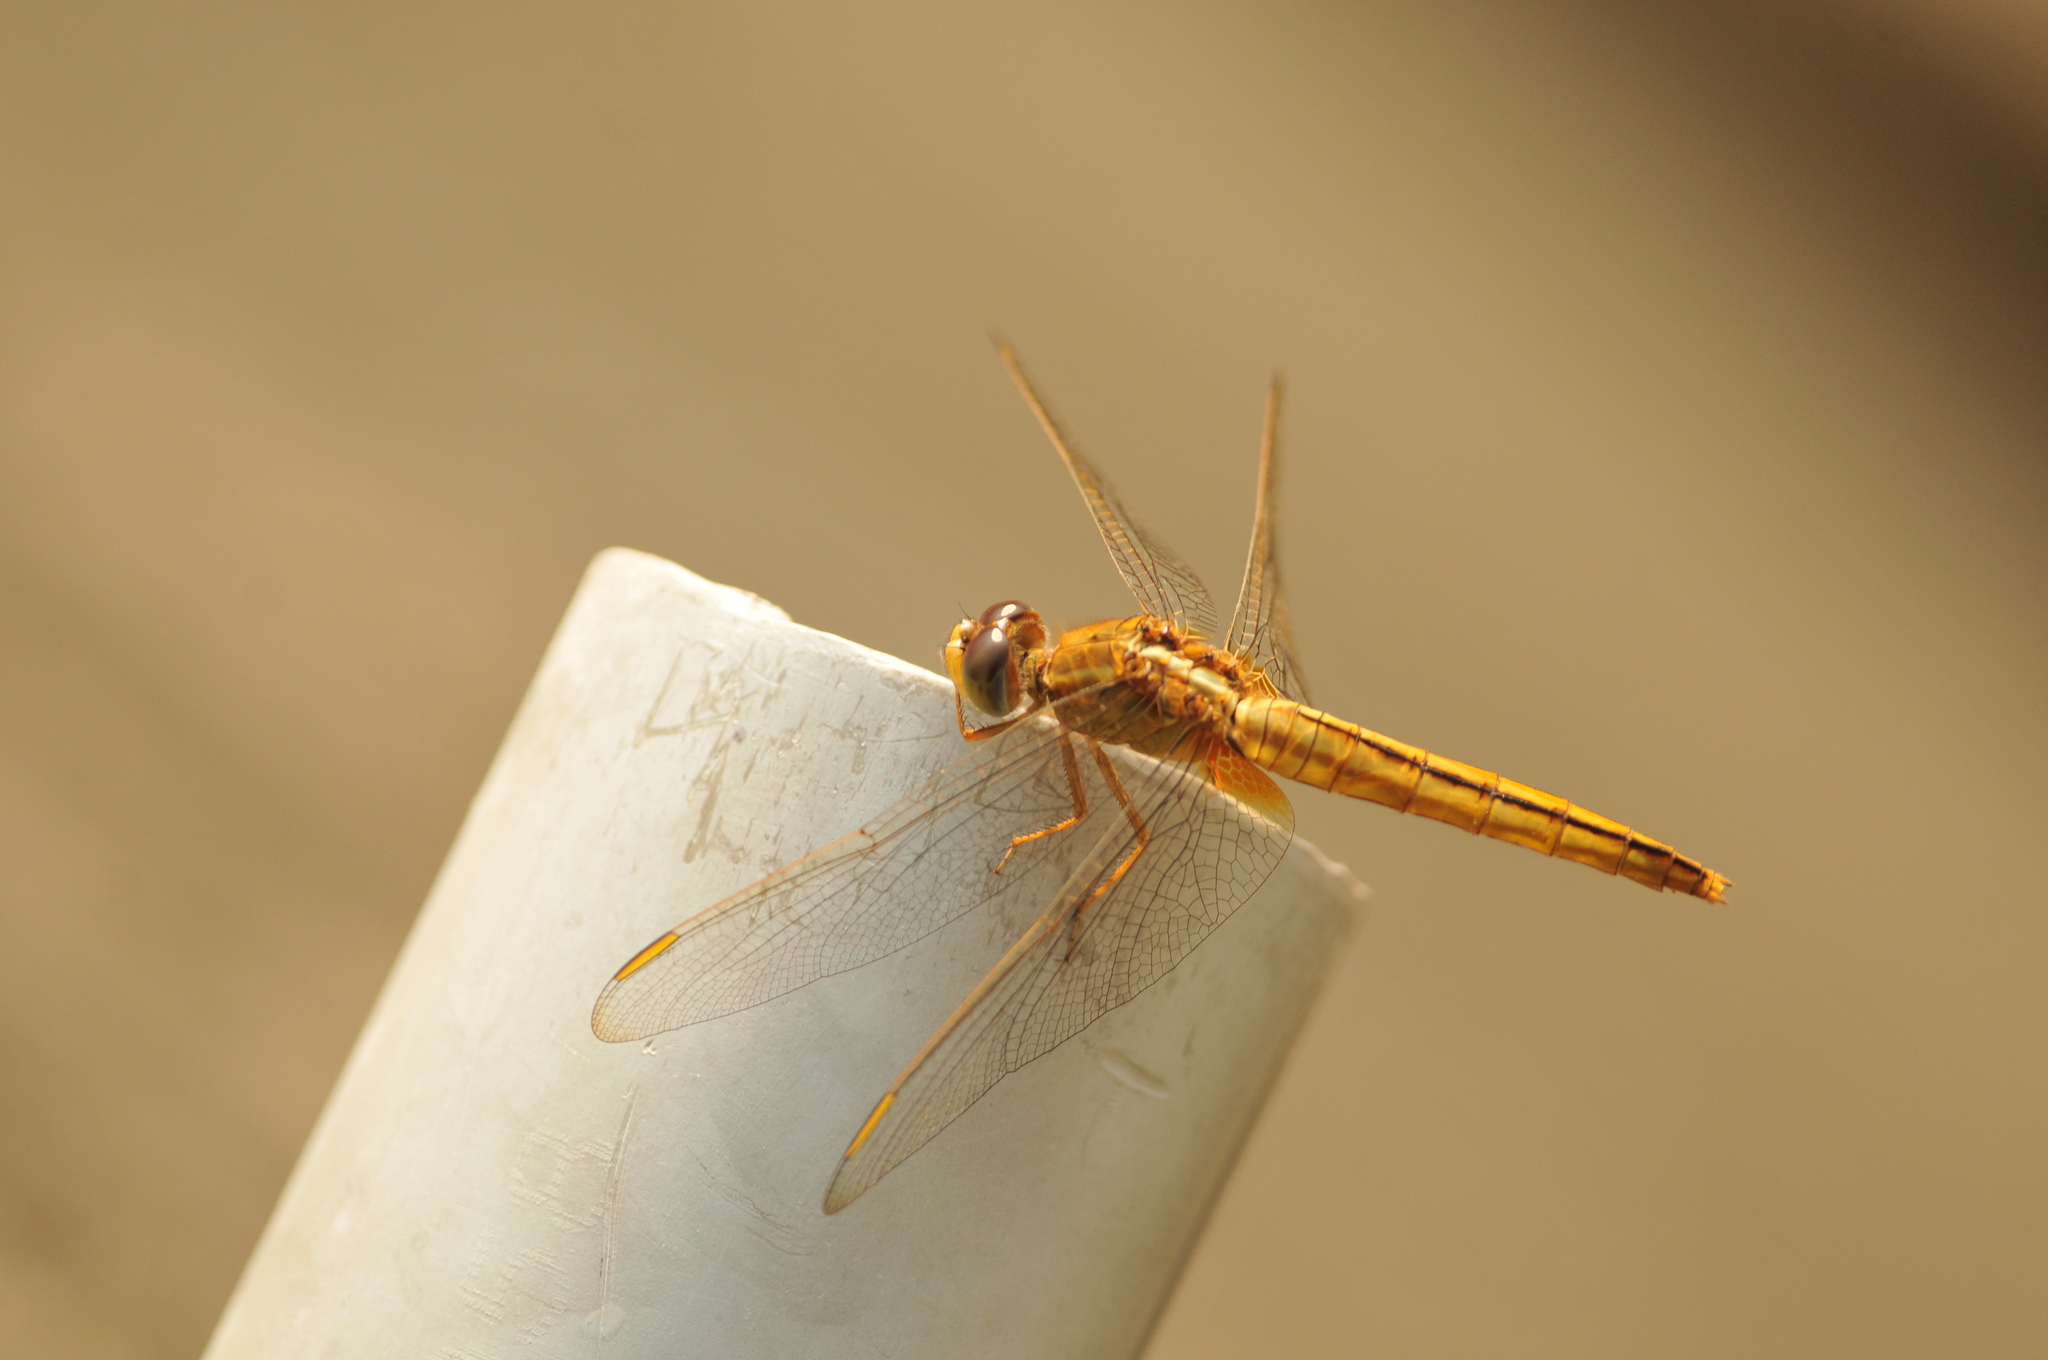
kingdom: Animalia
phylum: Arthropoda
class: Insecta
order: Odonata
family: Libellulidae
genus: Crocothemis
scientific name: Crocothemis servilia
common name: Scarlet skimmer
